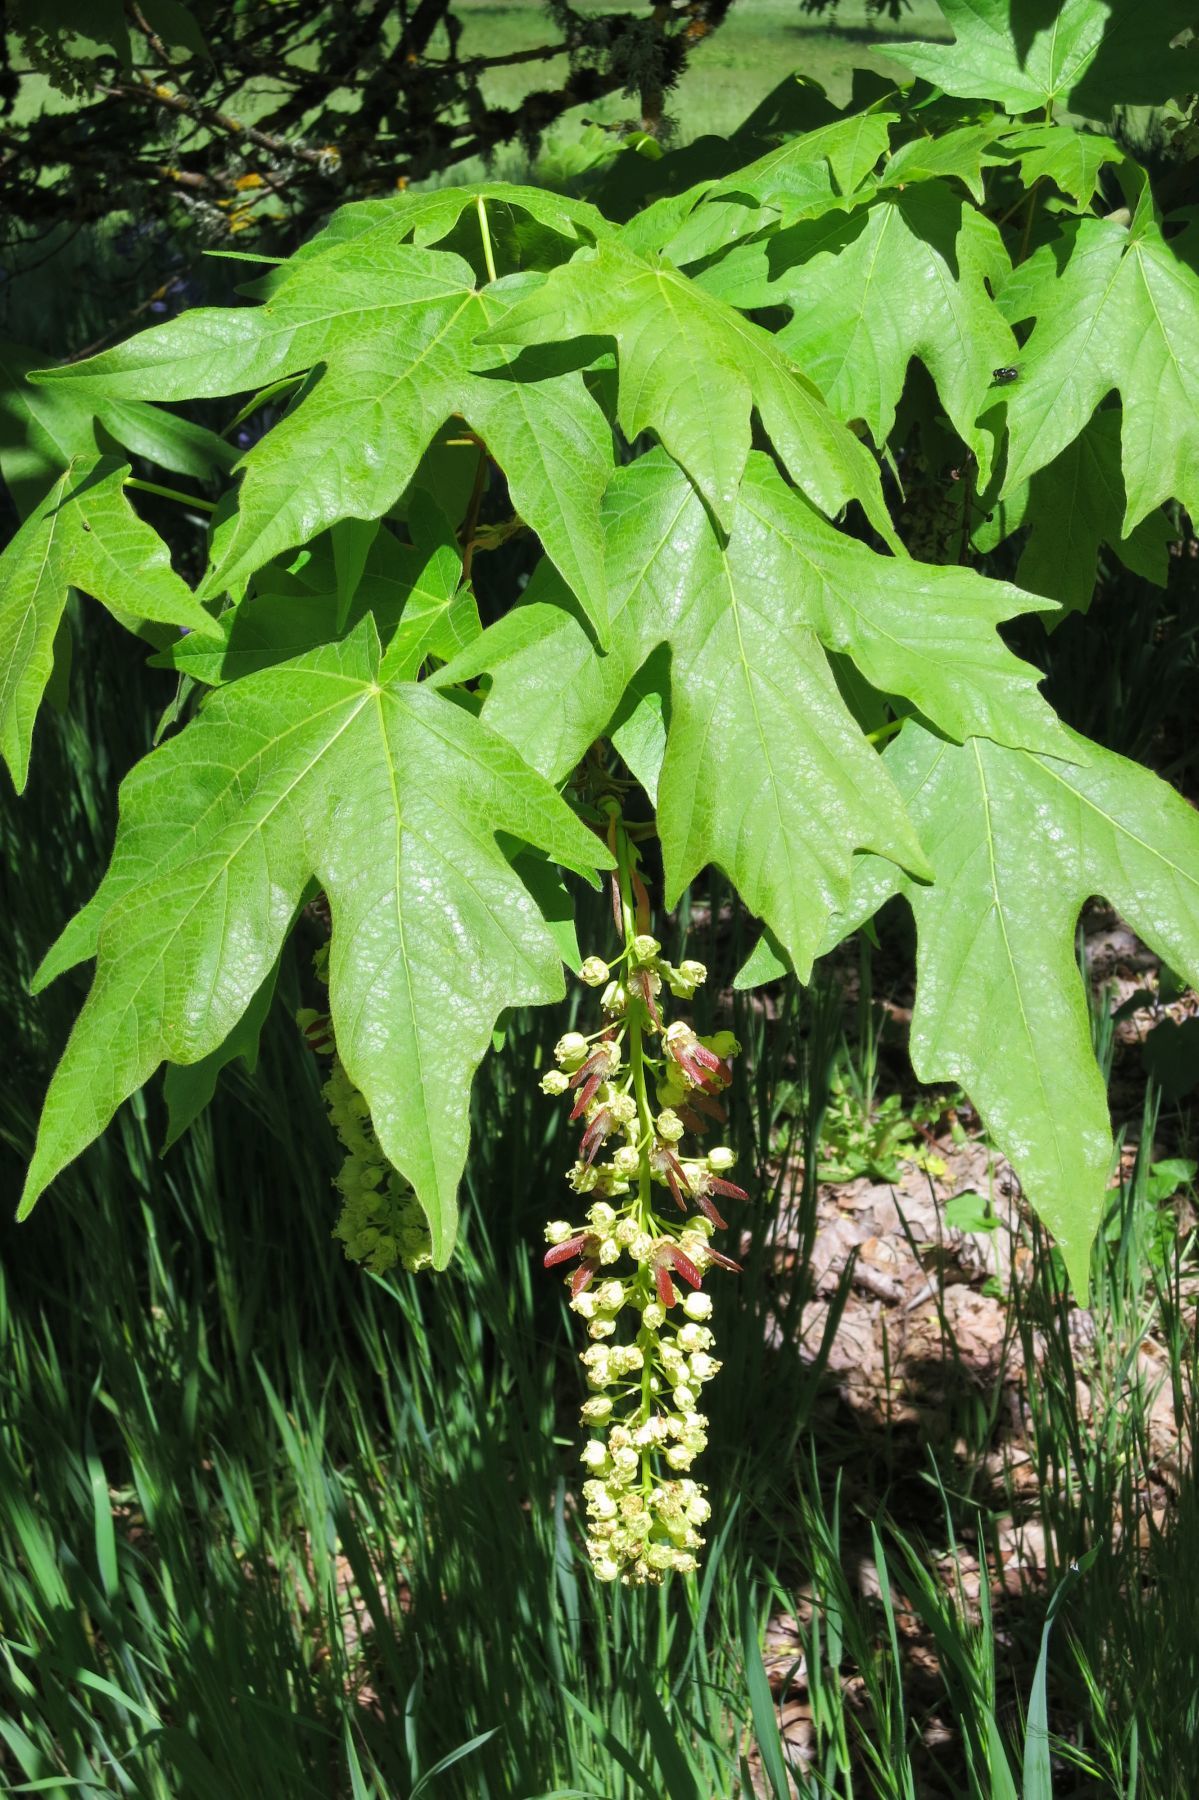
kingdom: Plantae
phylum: Tracheophyta
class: Magnoliopsida
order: Sapindales
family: Sapindaceae
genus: Acer
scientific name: Acer macrophyllum
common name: Oregon maple
